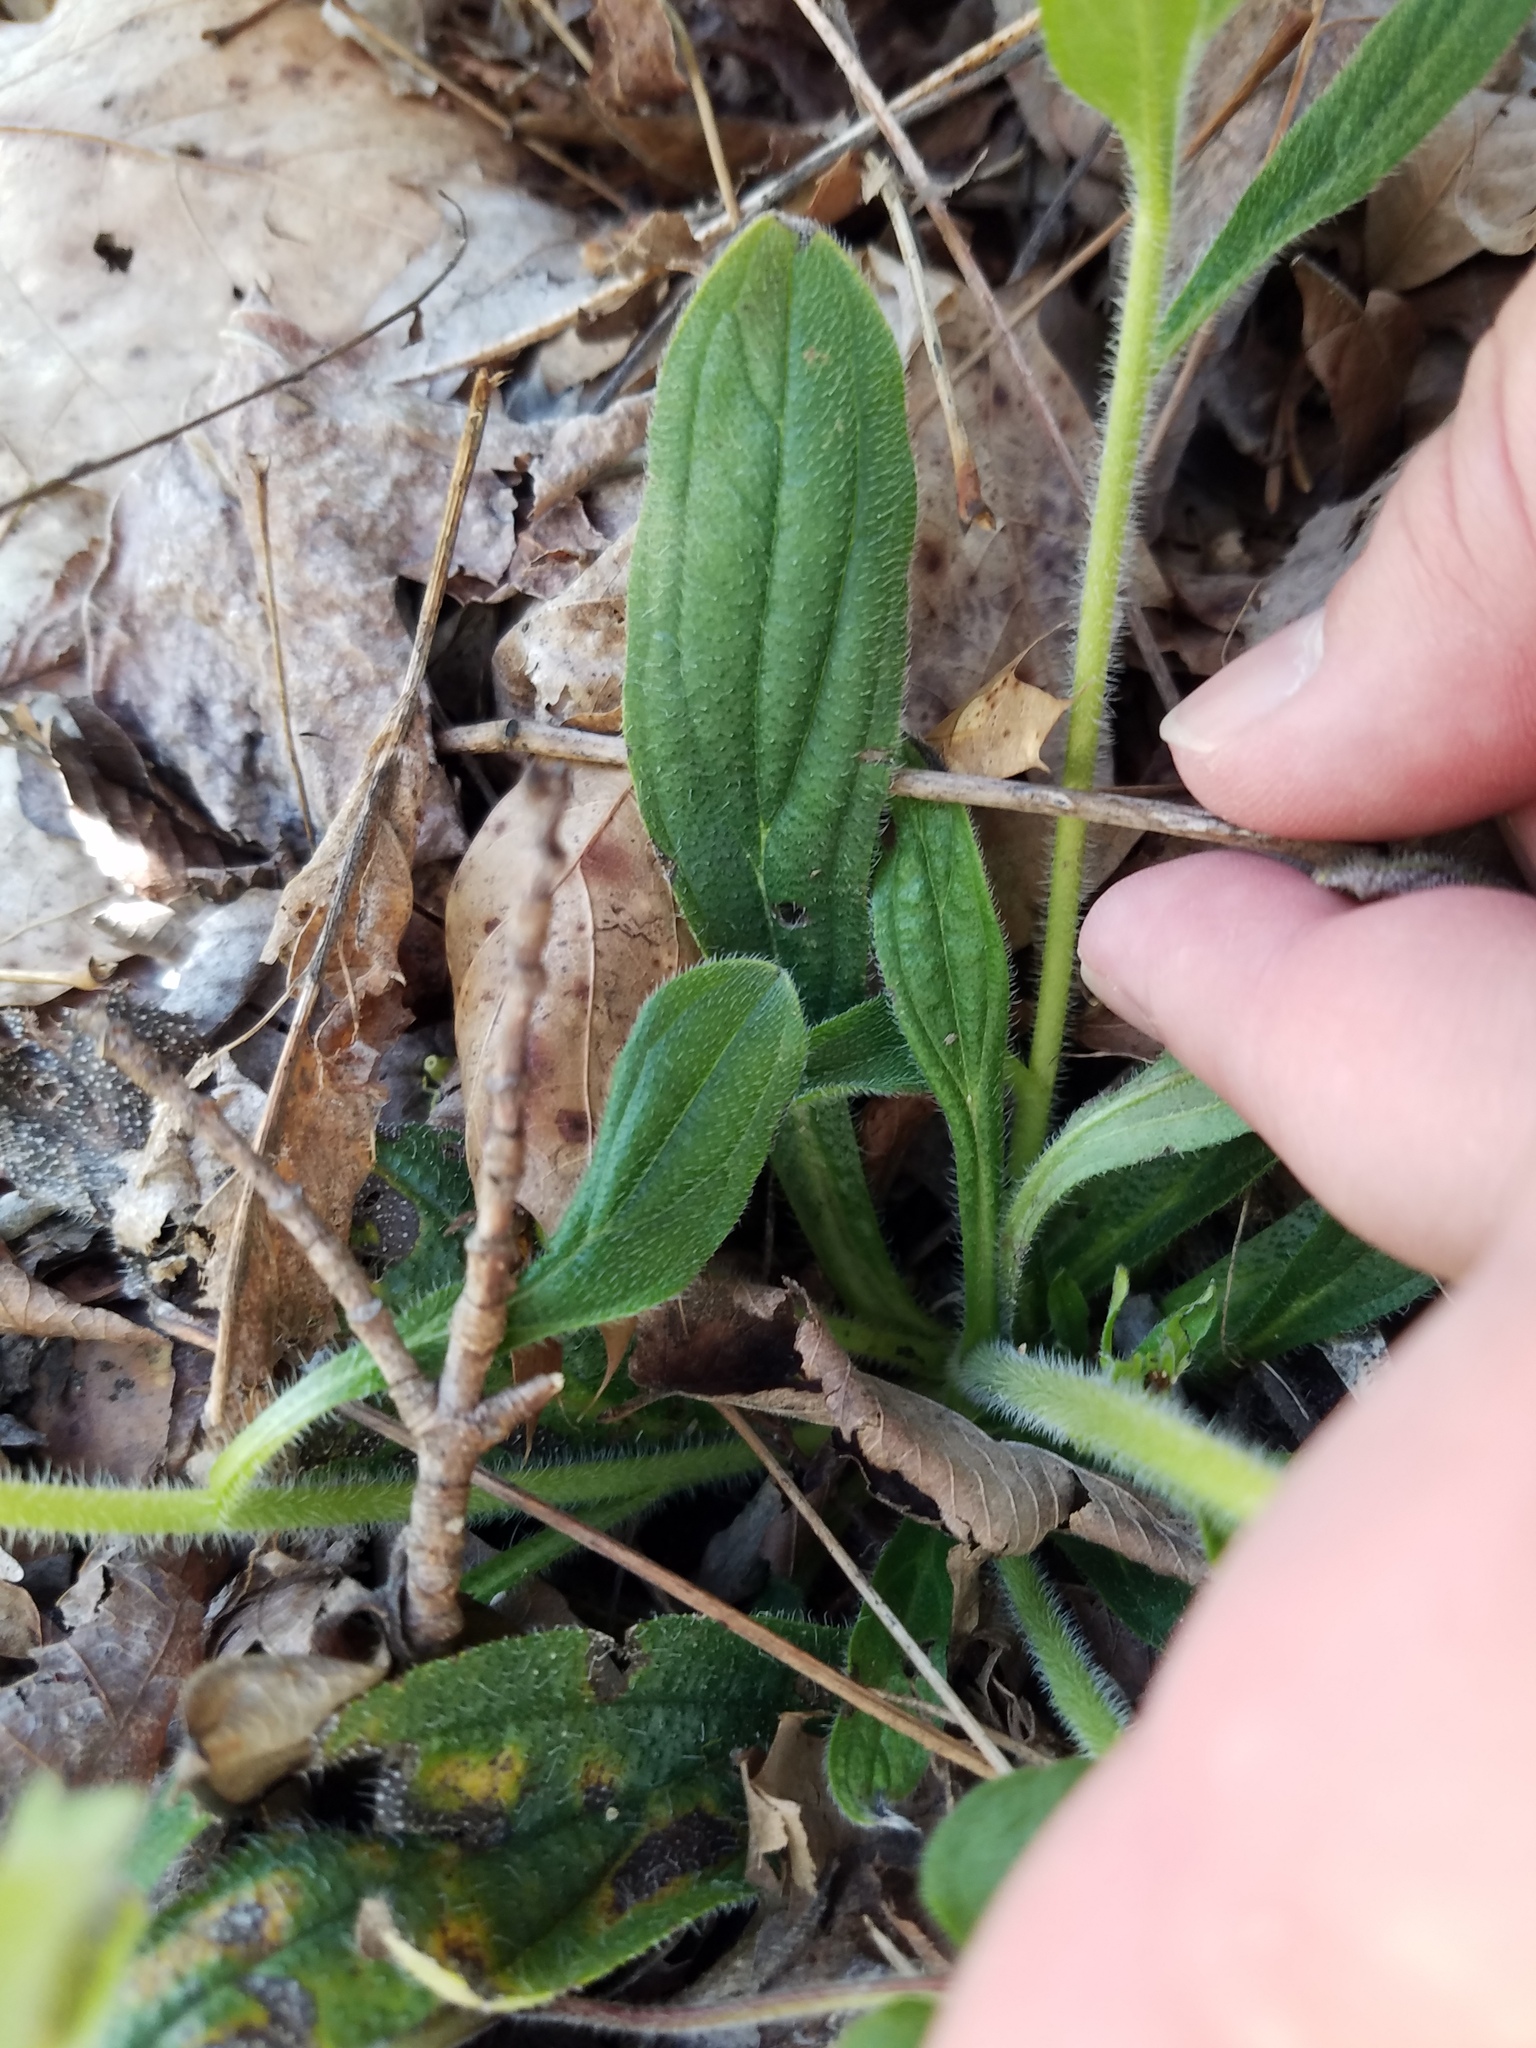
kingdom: Plantae
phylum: Tracheophyta
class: Magnoliopsida
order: Boraginales
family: Boraginaceae
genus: Lithospermum
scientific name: Lithospermum tuberosum
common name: Southern stoneseed
